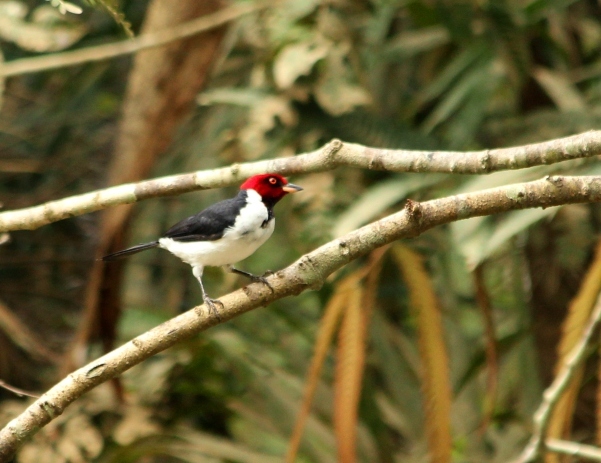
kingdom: Animalia
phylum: Chordata
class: Aves
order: Passeriformes
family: Thraupidae
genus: Paroaria
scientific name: Paroaria gularis
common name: Red-capped cardinal
